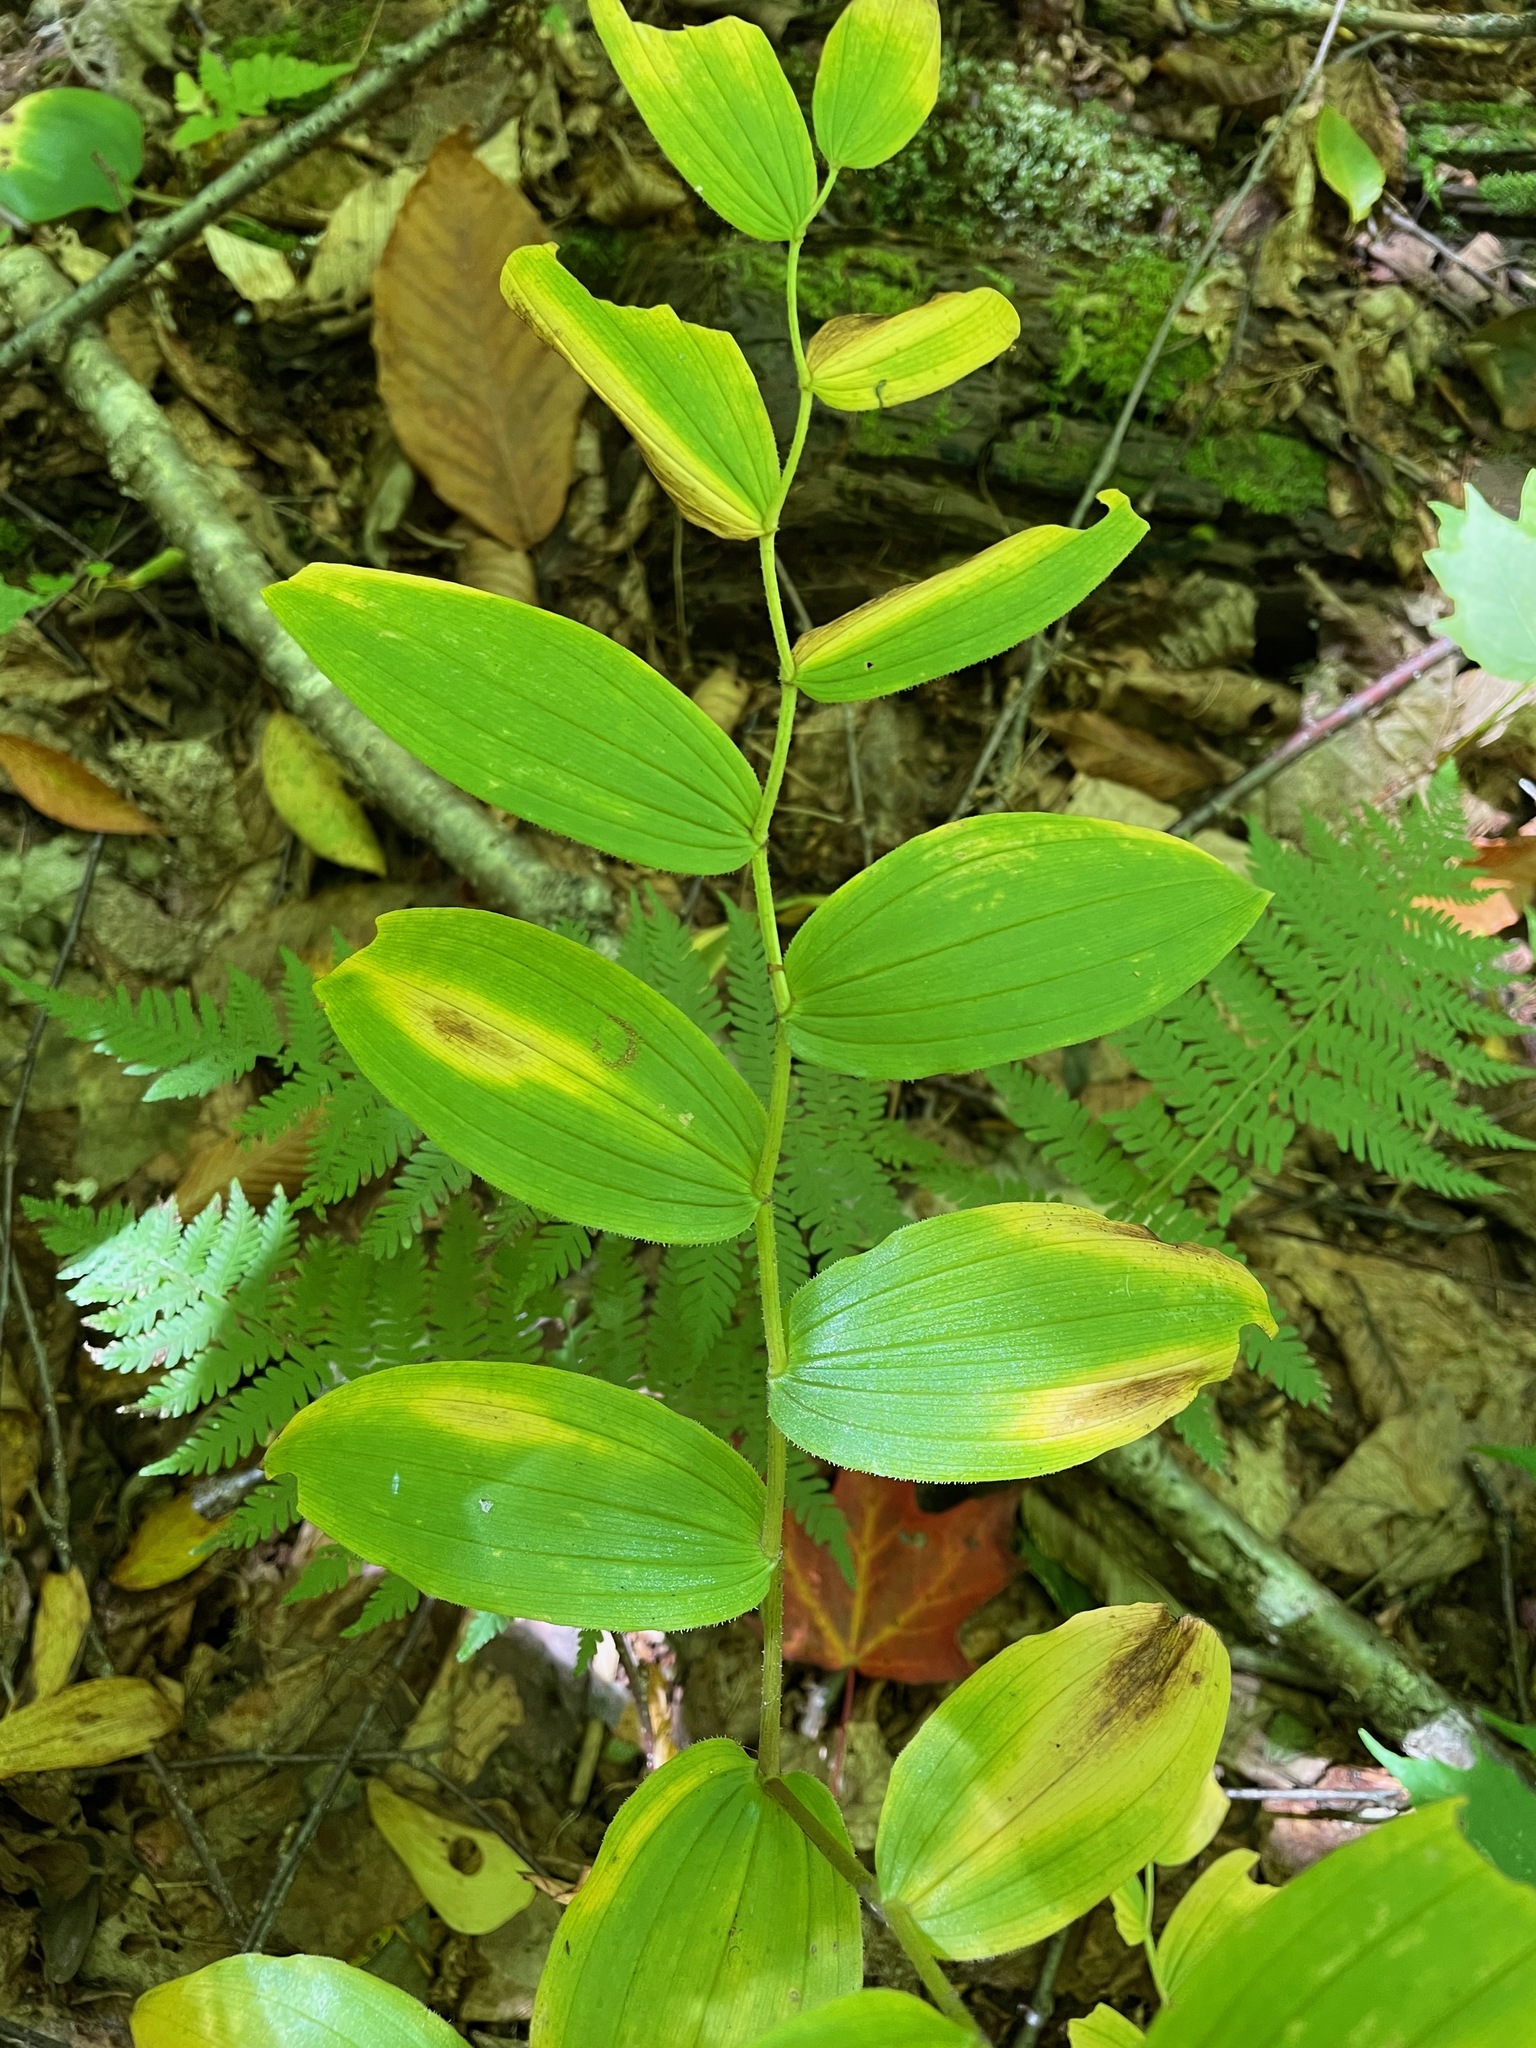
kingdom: Plantae
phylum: Tracheophyta
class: Liliopsida
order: Liliales
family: Liliaceae
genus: Streptopus
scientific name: Streptopus lanceolatus
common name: Rose mandarin
